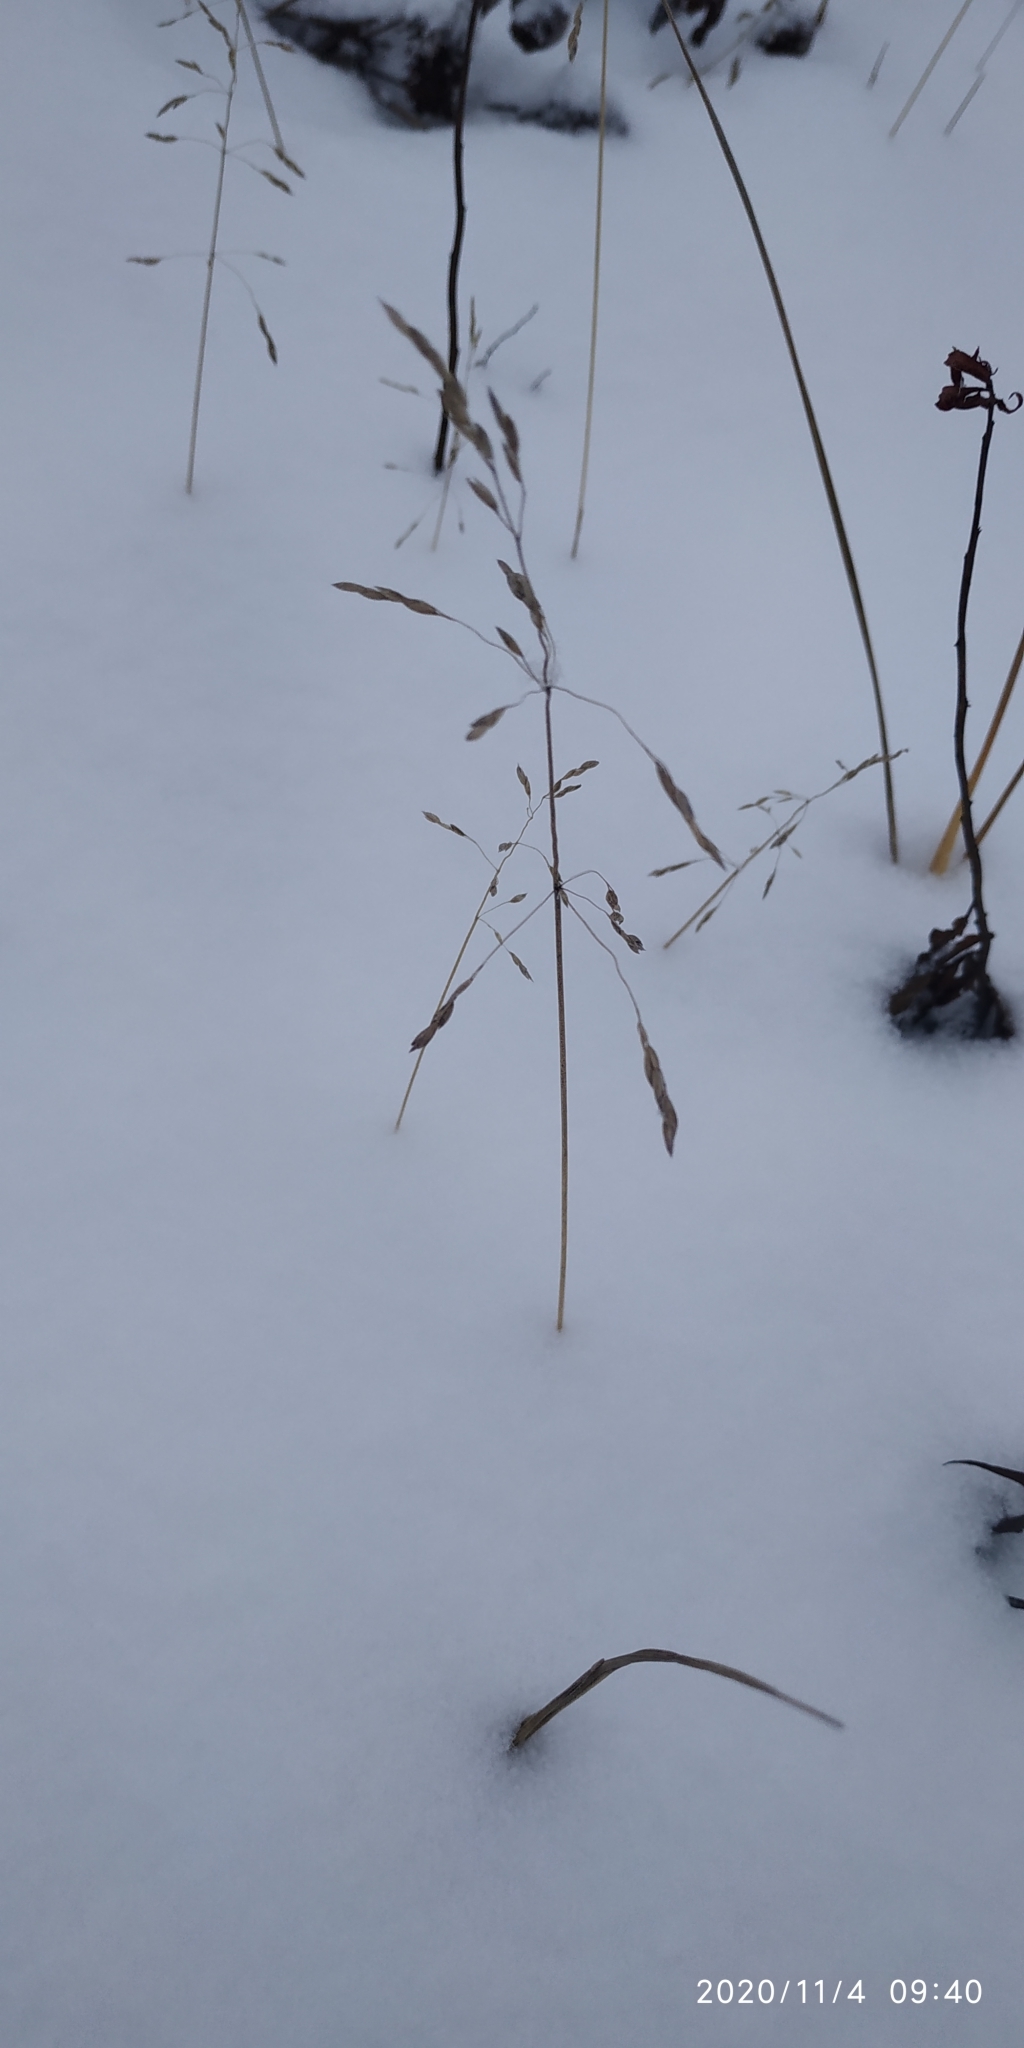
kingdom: Plantae
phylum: Tracheophyta
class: Liliopsida
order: Poales
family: Poaceae
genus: Poa
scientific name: Poa arctica
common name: Arctic bluegrass
